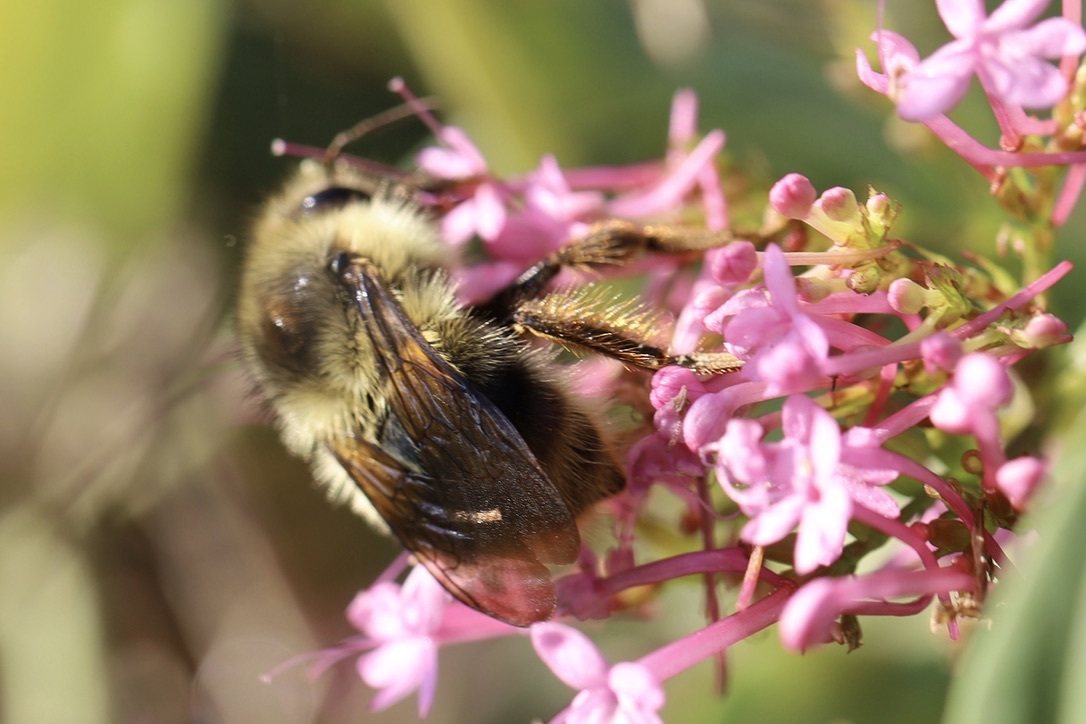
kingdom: Animalia
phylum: Arthropoda
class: Insecta
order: Hymenoptera
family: Apidae
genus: Bombus
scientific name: Bombus mixtus
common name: Fuzzy-horned bumble bee
